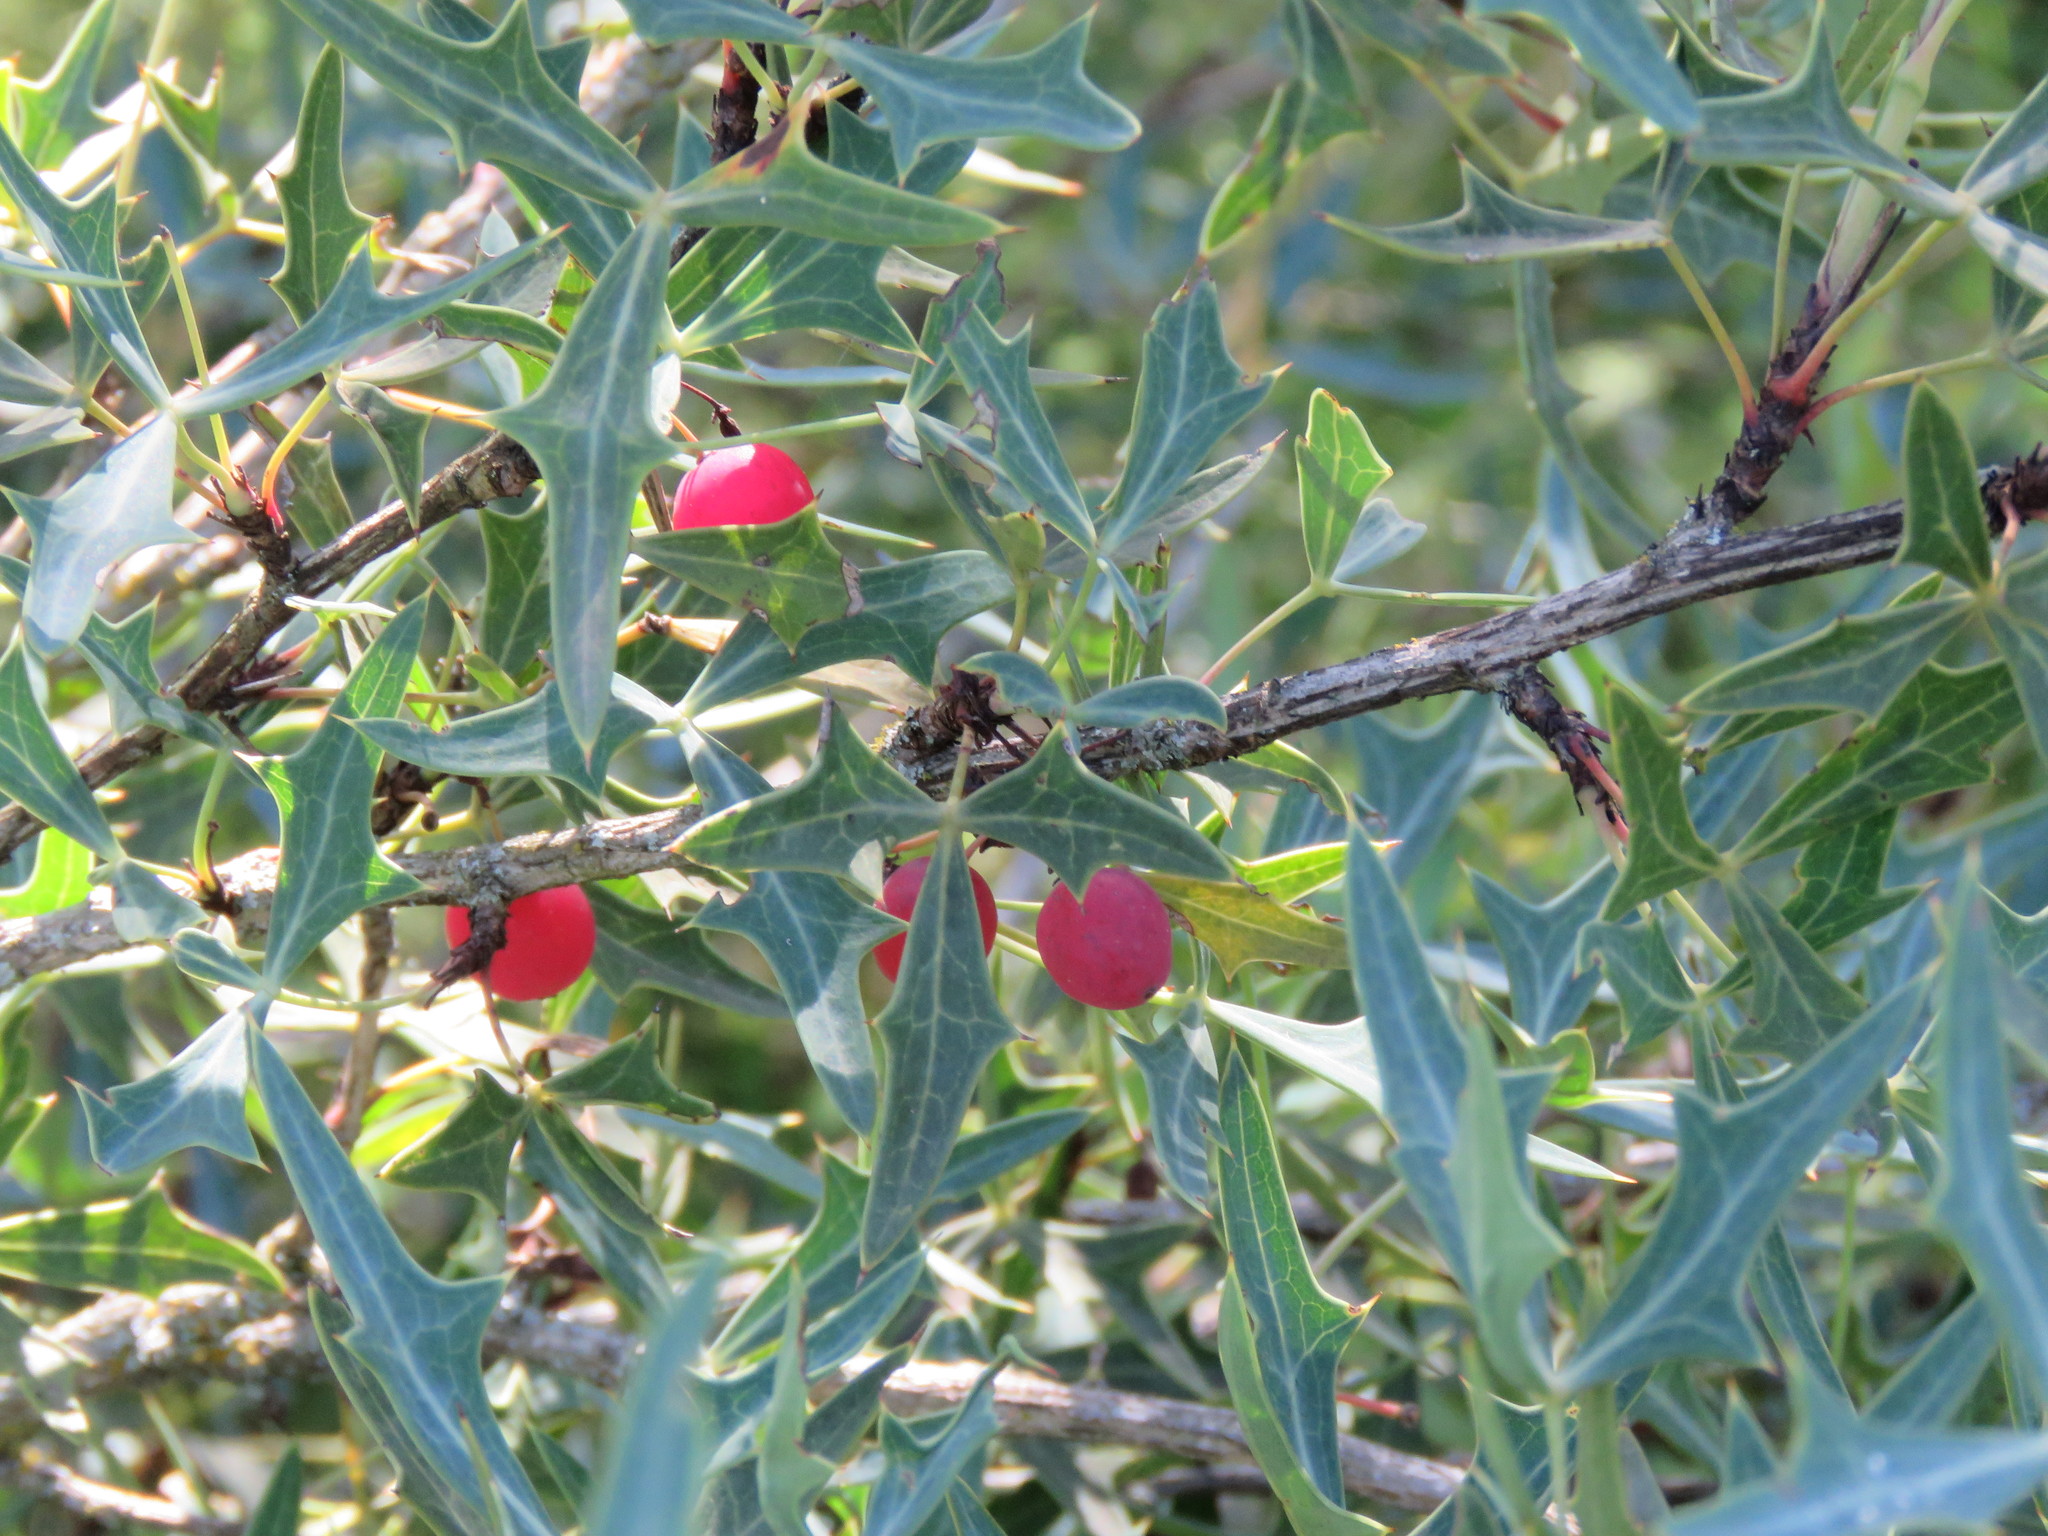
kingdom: Plantae
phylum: Tracheophyta
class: Magnoliopsida
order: Ranunculales
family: Berberidaceae
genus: Alloberberis
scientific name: Alloberberis trifoliolata
